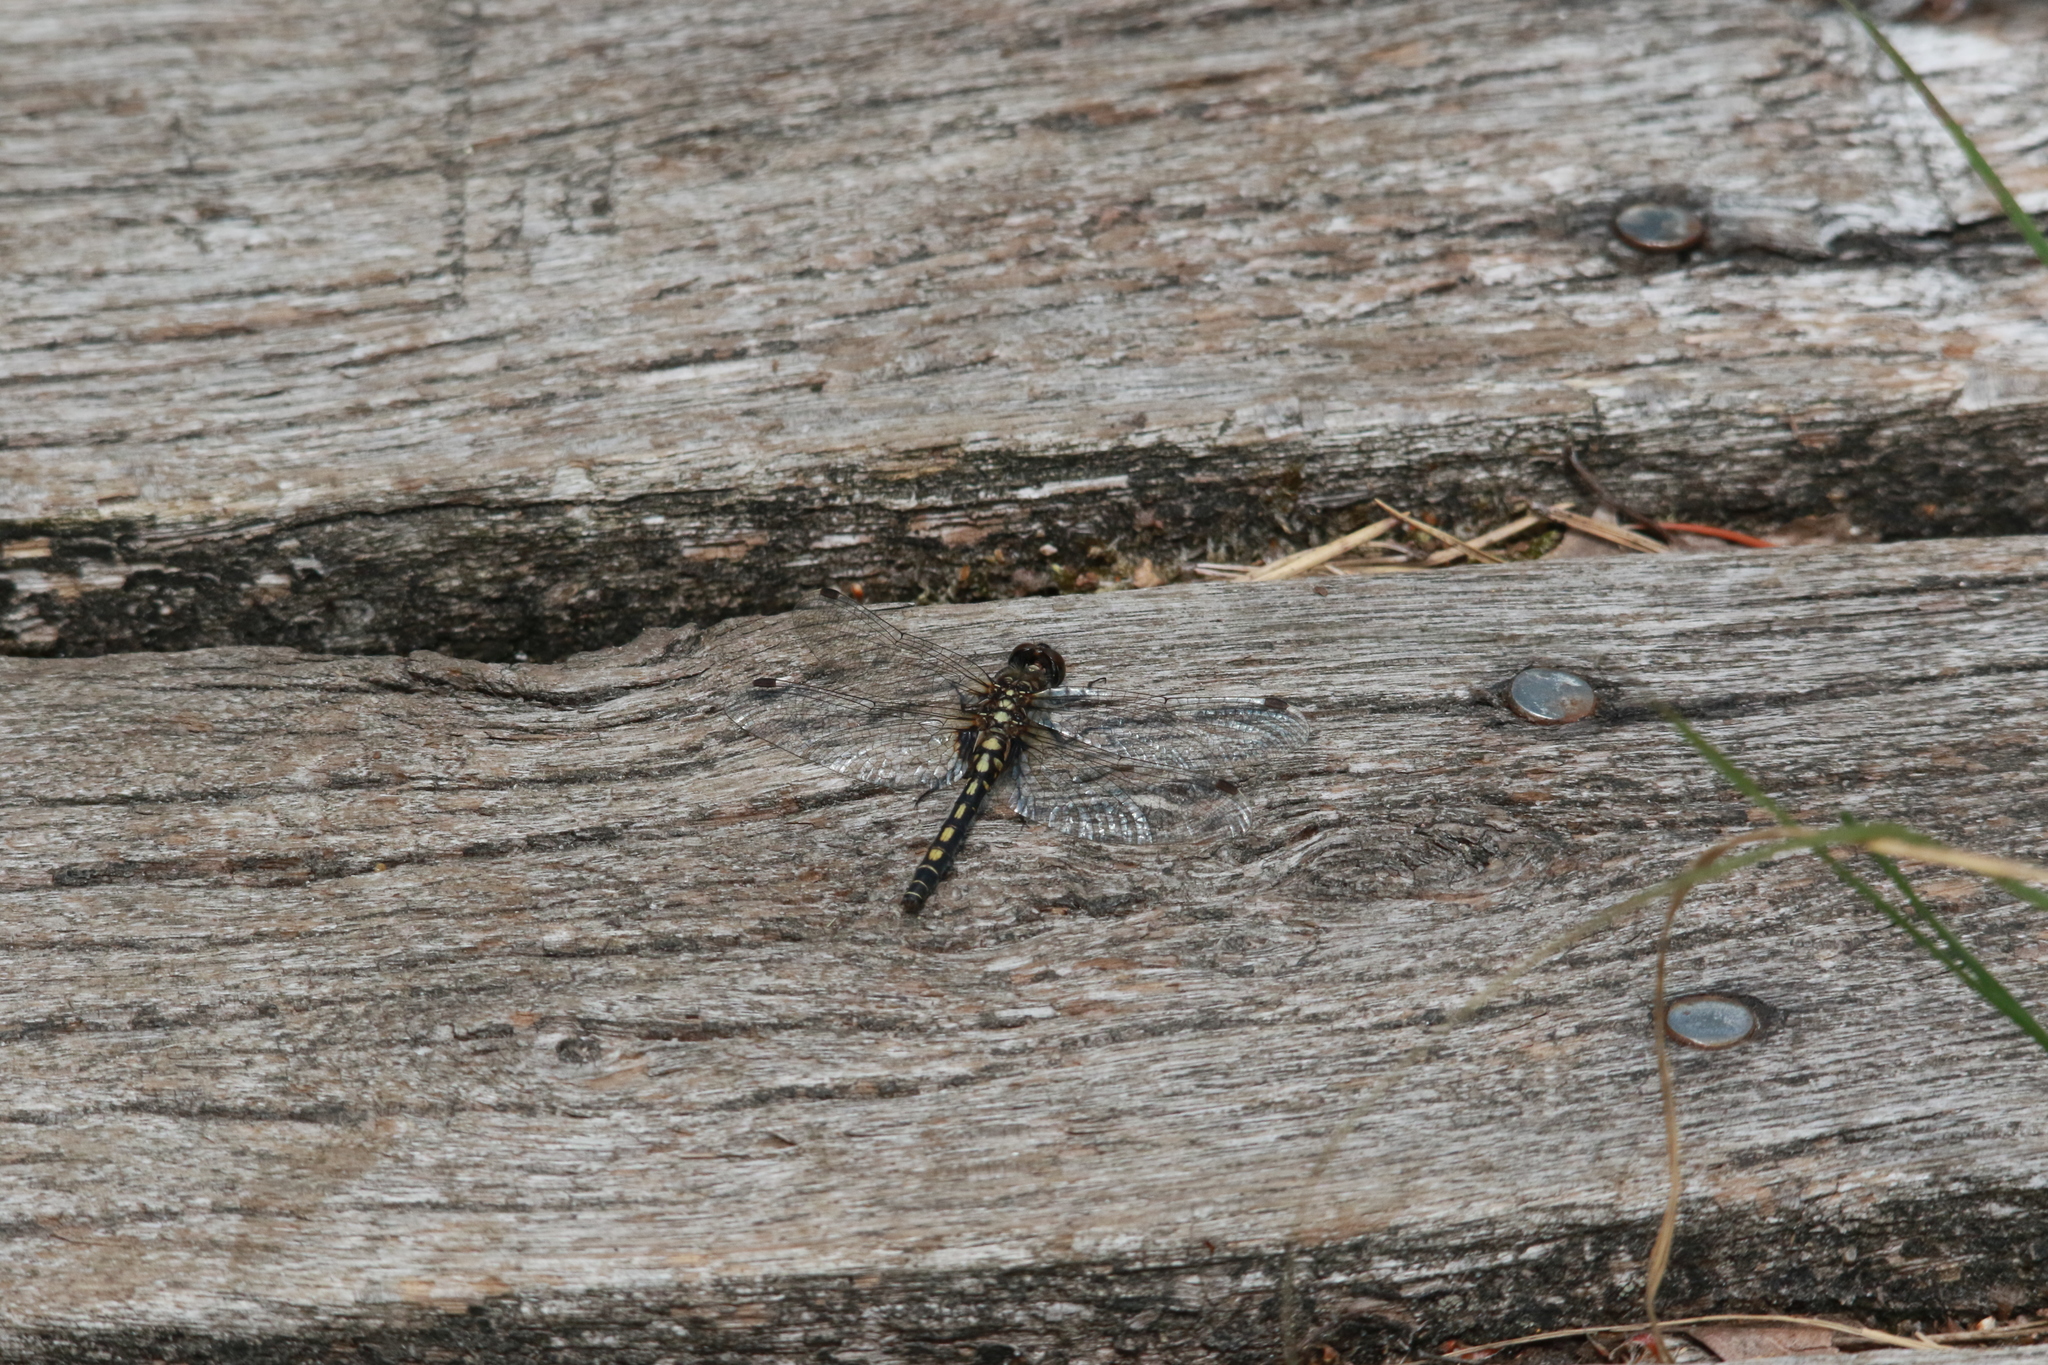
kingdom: Animalia
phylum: Arthropoda
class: Insecta
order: Odonata
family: Libellulidae
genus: Leucorrhinia
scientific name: Leucorrhinia dubia
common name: White-faced darter
